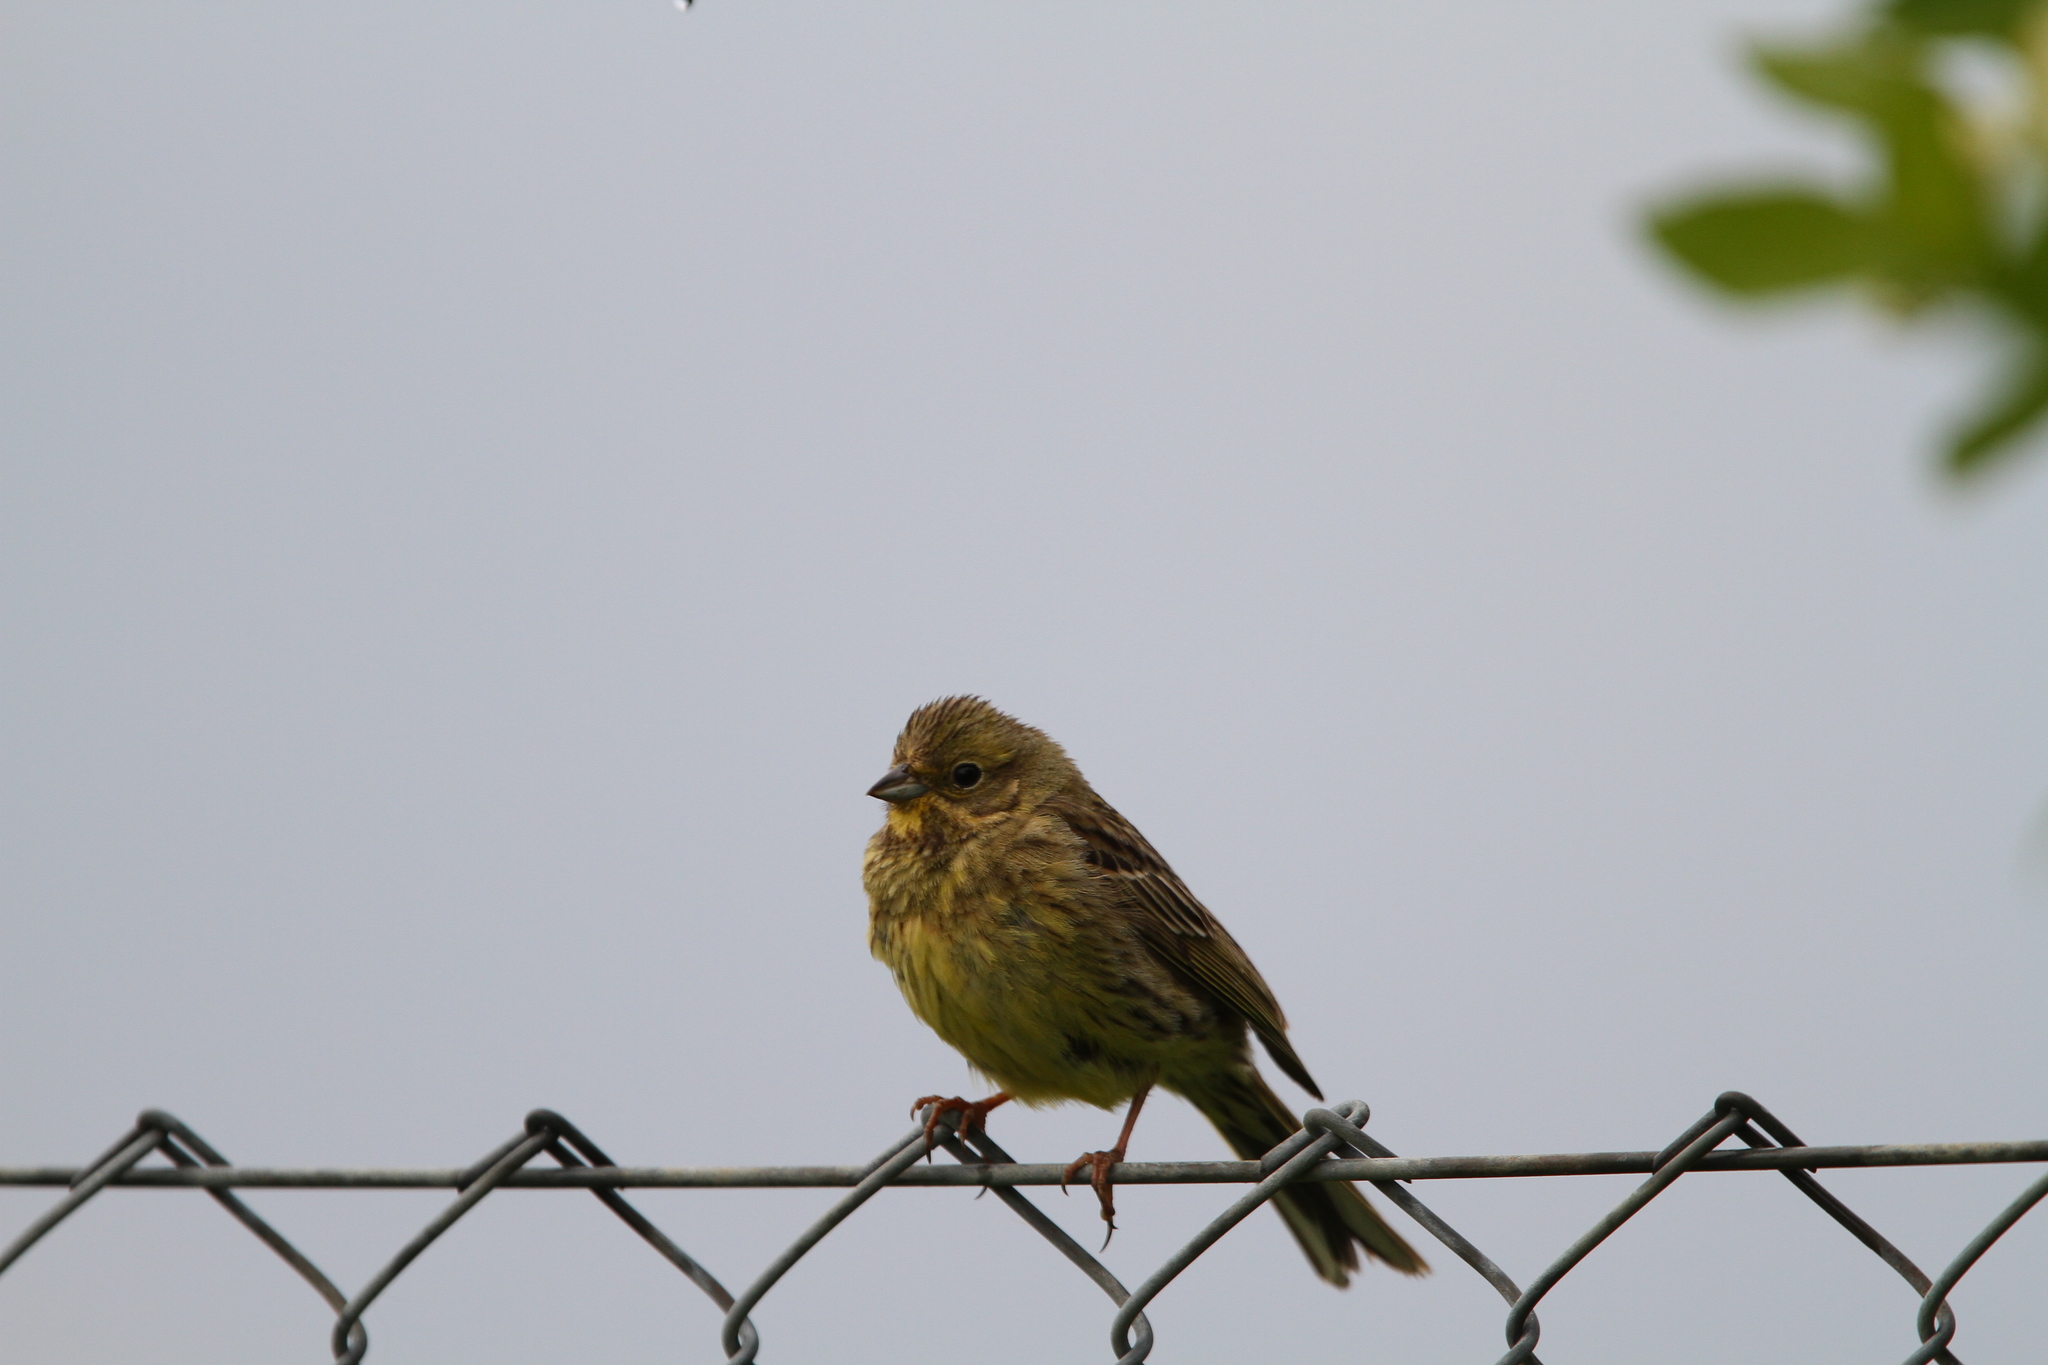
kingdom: Animalia
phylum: Chordata
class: Aves
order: Passeriformes
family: Emberizidae
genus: Emberiza
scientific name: Emberiza citrinella
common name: Yellowhammer
